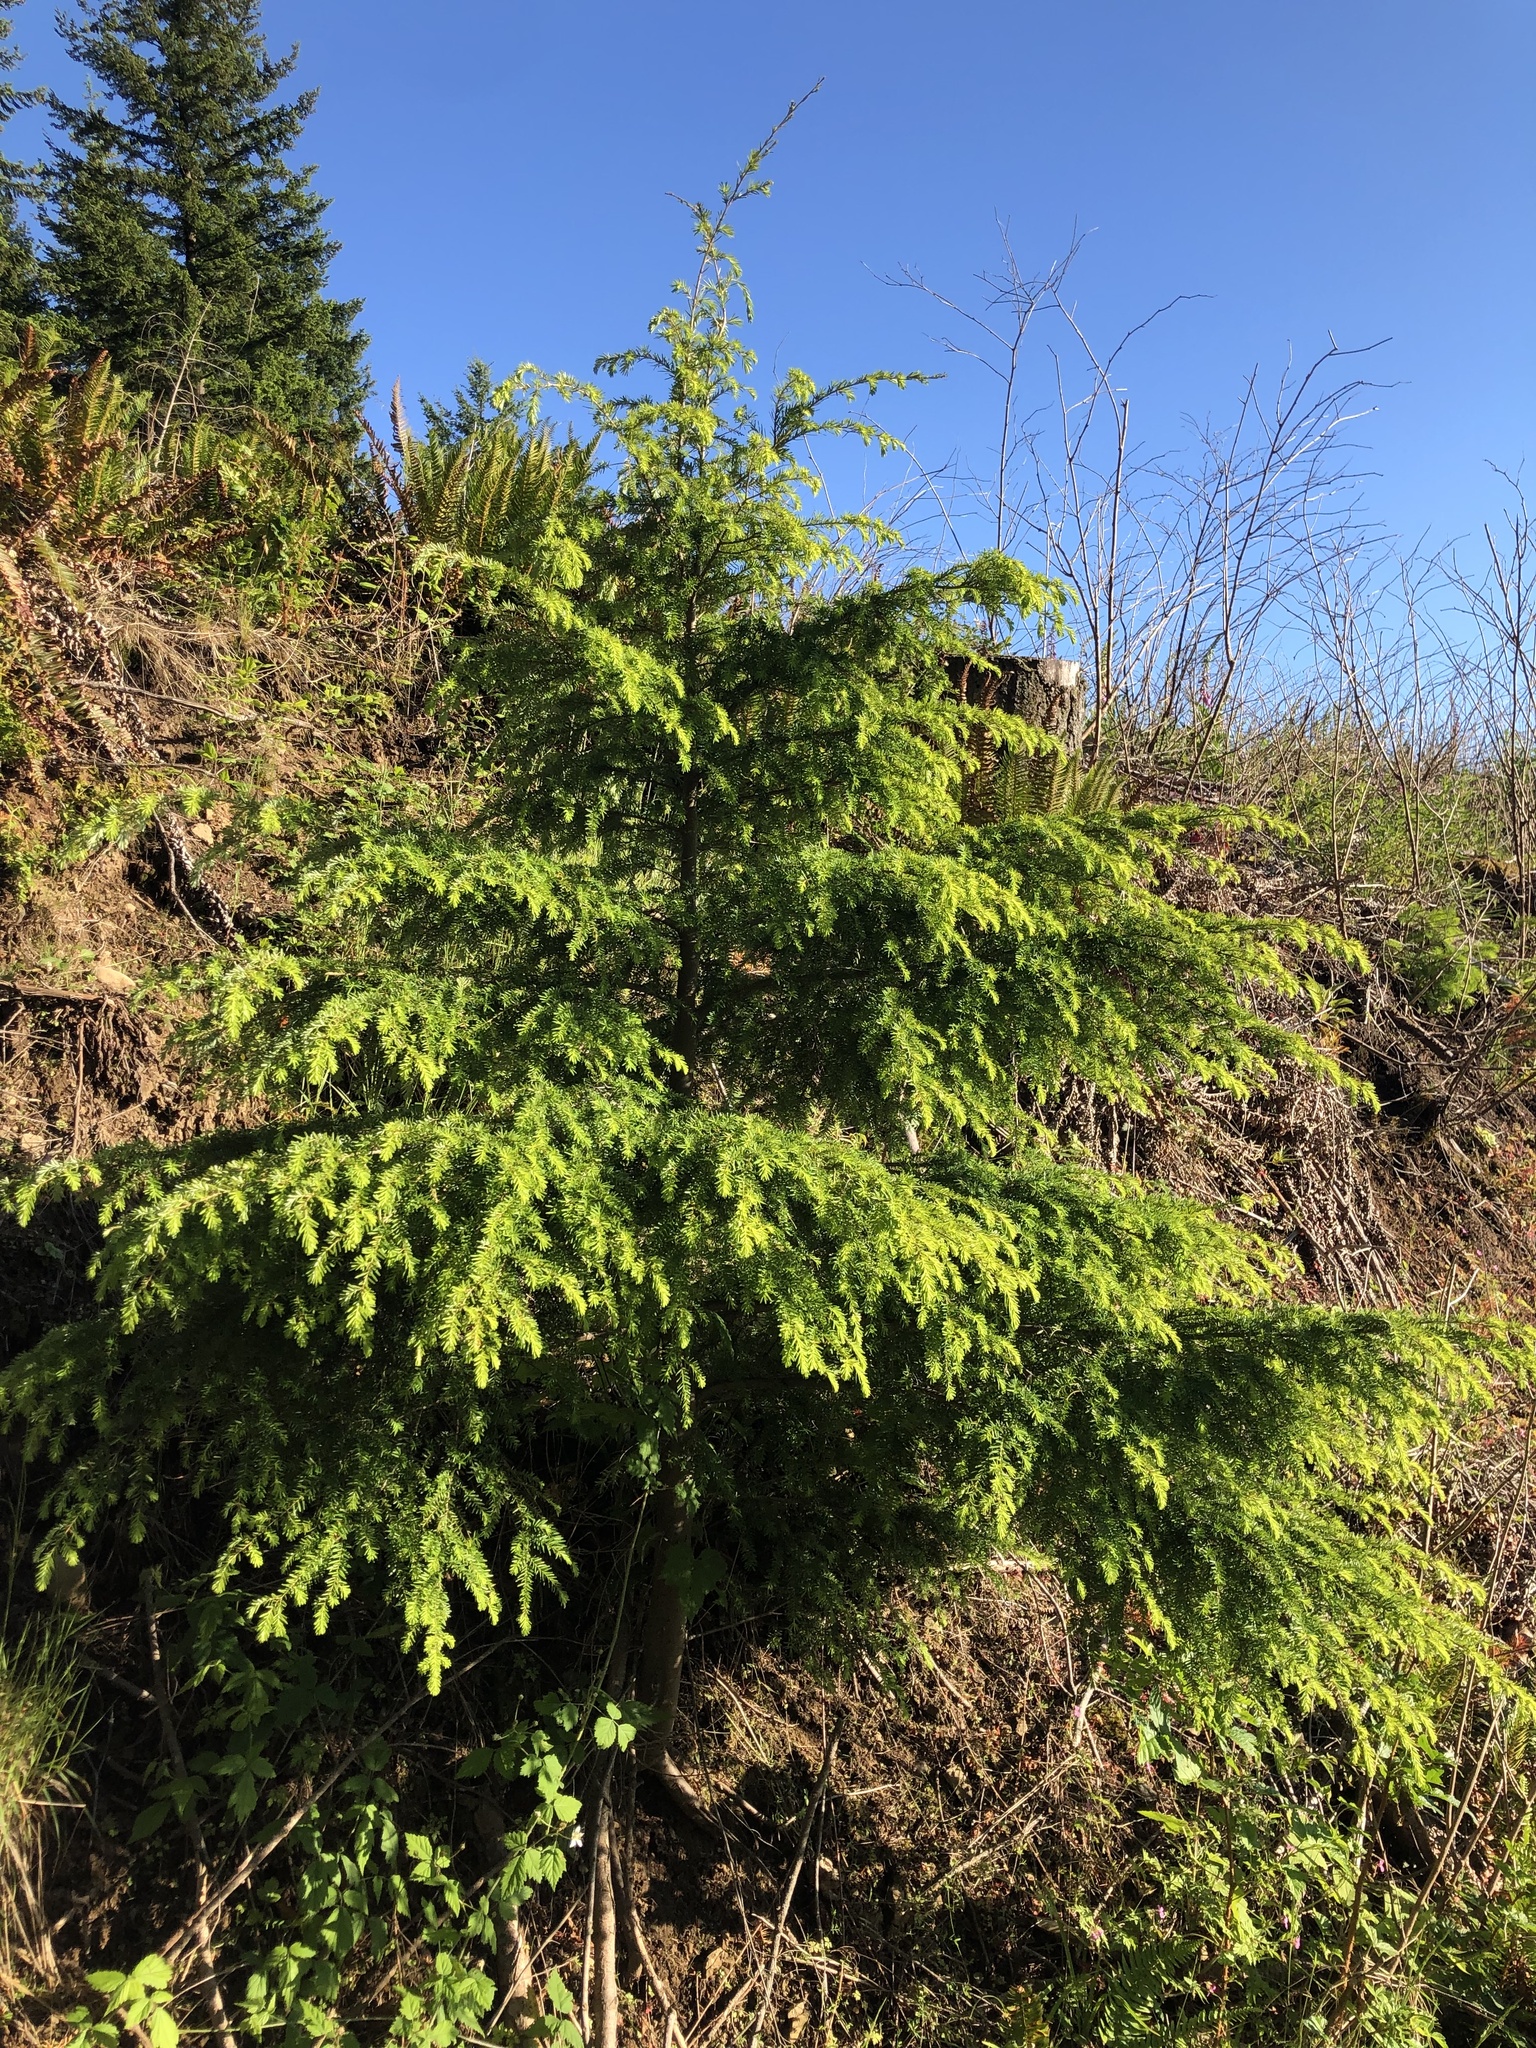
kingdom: Plantae
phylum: Tracheophyta
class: Pinopsida
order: Pinales
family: Pinaceae
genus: Tsuga
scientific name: Tsuga heterophylla
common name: Western hemlock
